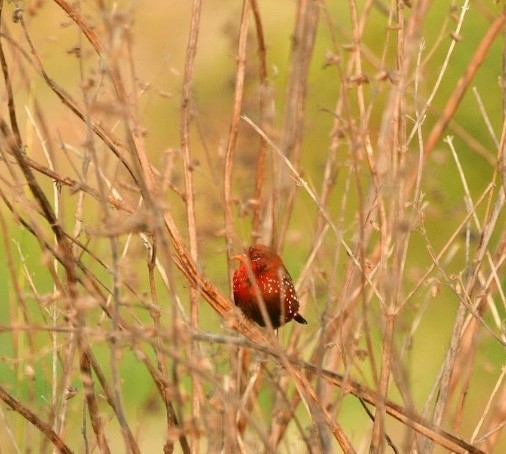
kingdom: Animalia
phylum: Chordata
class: Aves
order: Passeriformes
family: Estrildidae
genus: Amandava
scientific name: Amandava amandava
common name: Red avadavat
